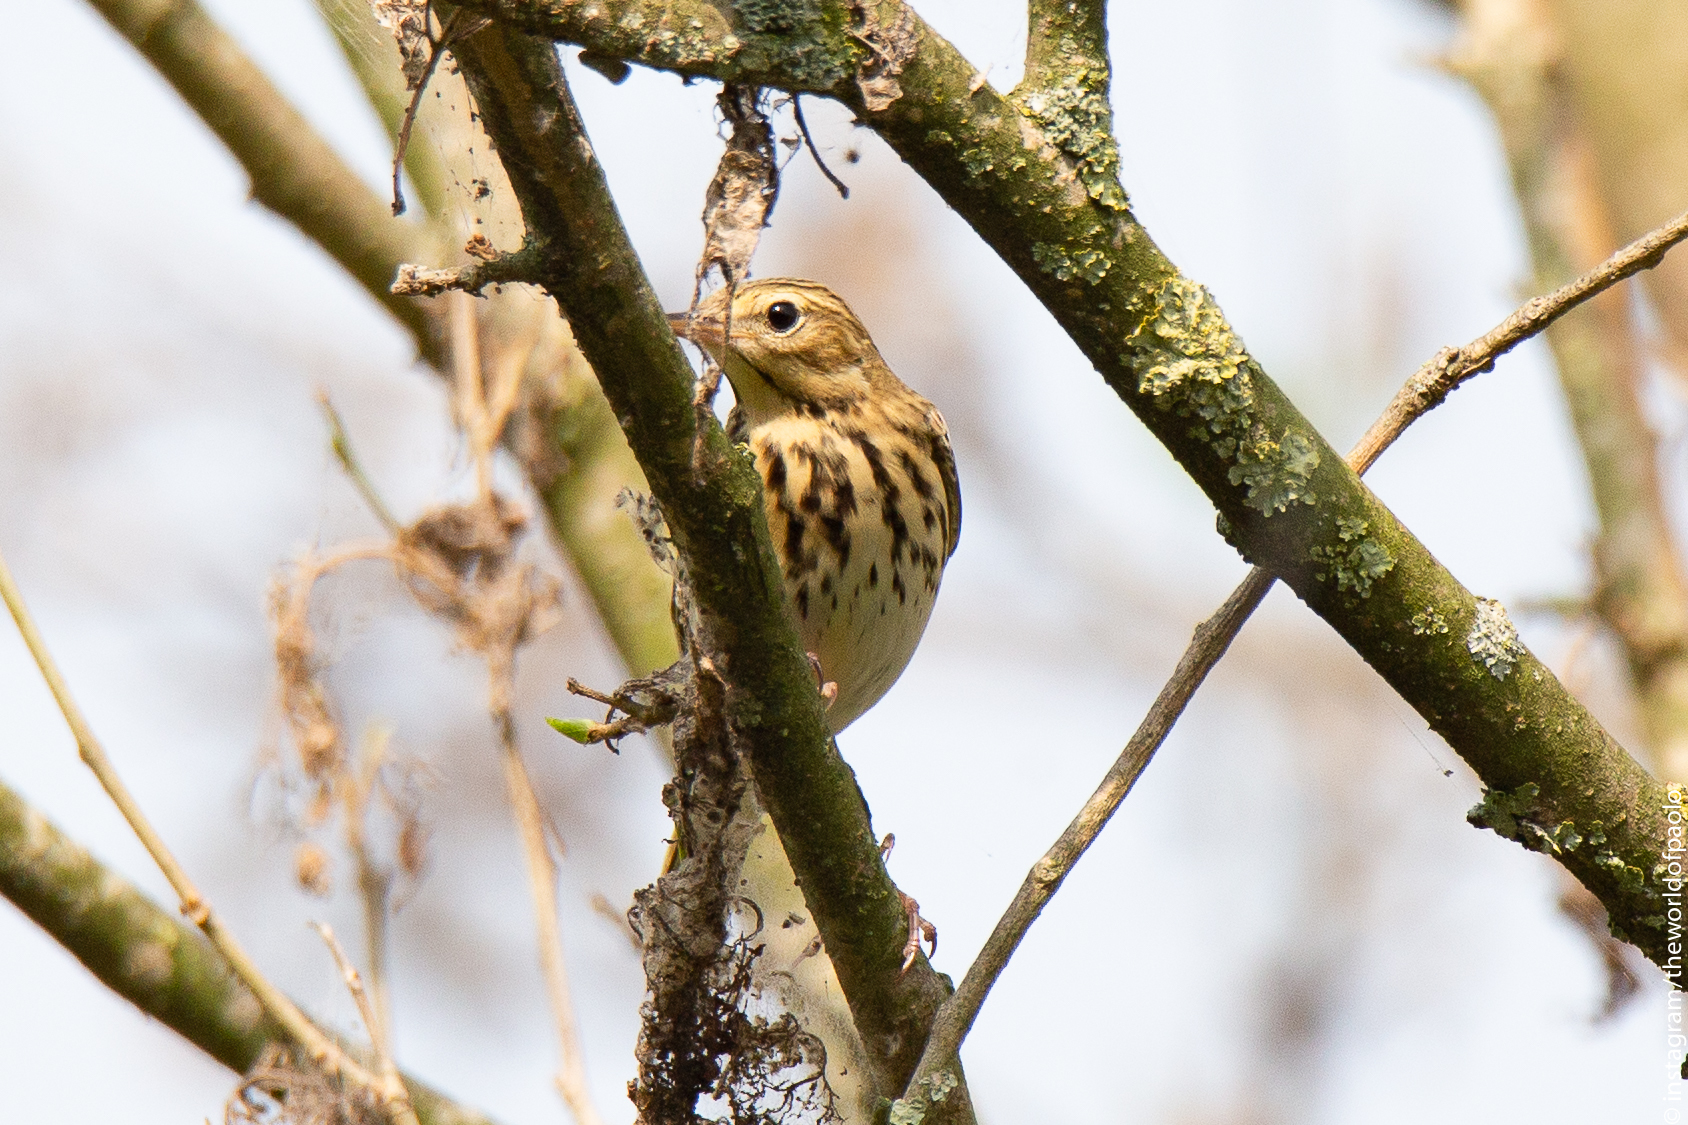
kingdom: Animalia
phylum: Chordata
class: Aves
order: Passeriformes
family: Motacillidae
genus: Anthus
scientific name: Anthus trivialis
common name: Tree pipit
